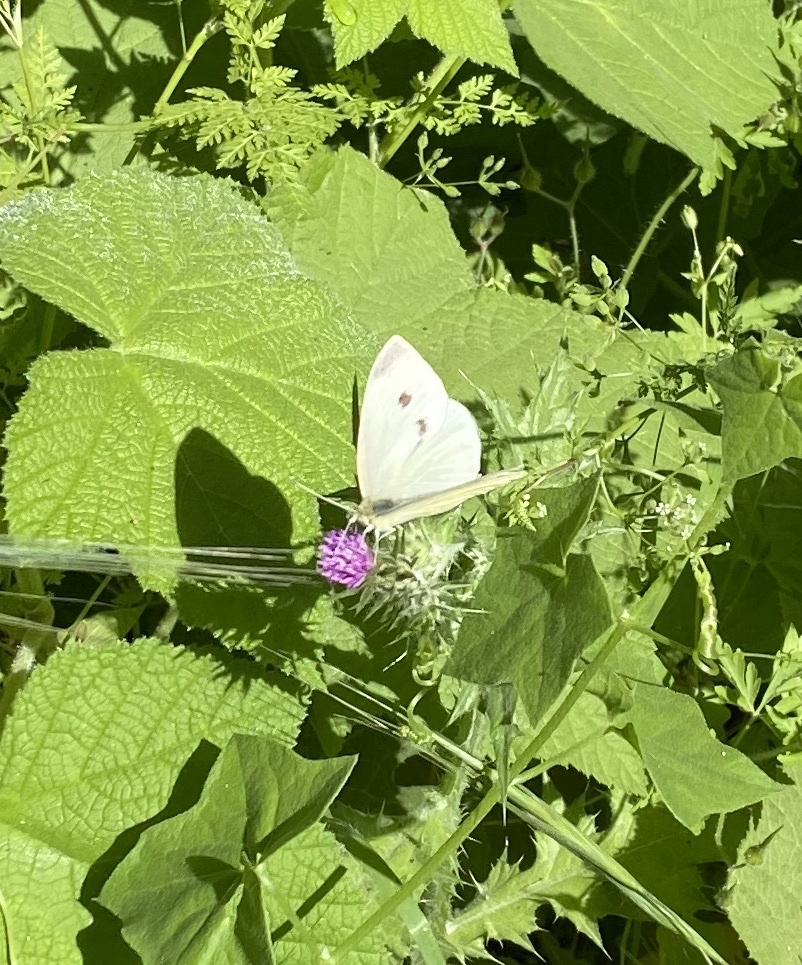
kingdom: Animalia
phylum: Arthropoda
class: Insecta
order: Lepidoptera
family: Pieridae
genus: Pieris
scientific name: Pieris rapae
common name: Small white
